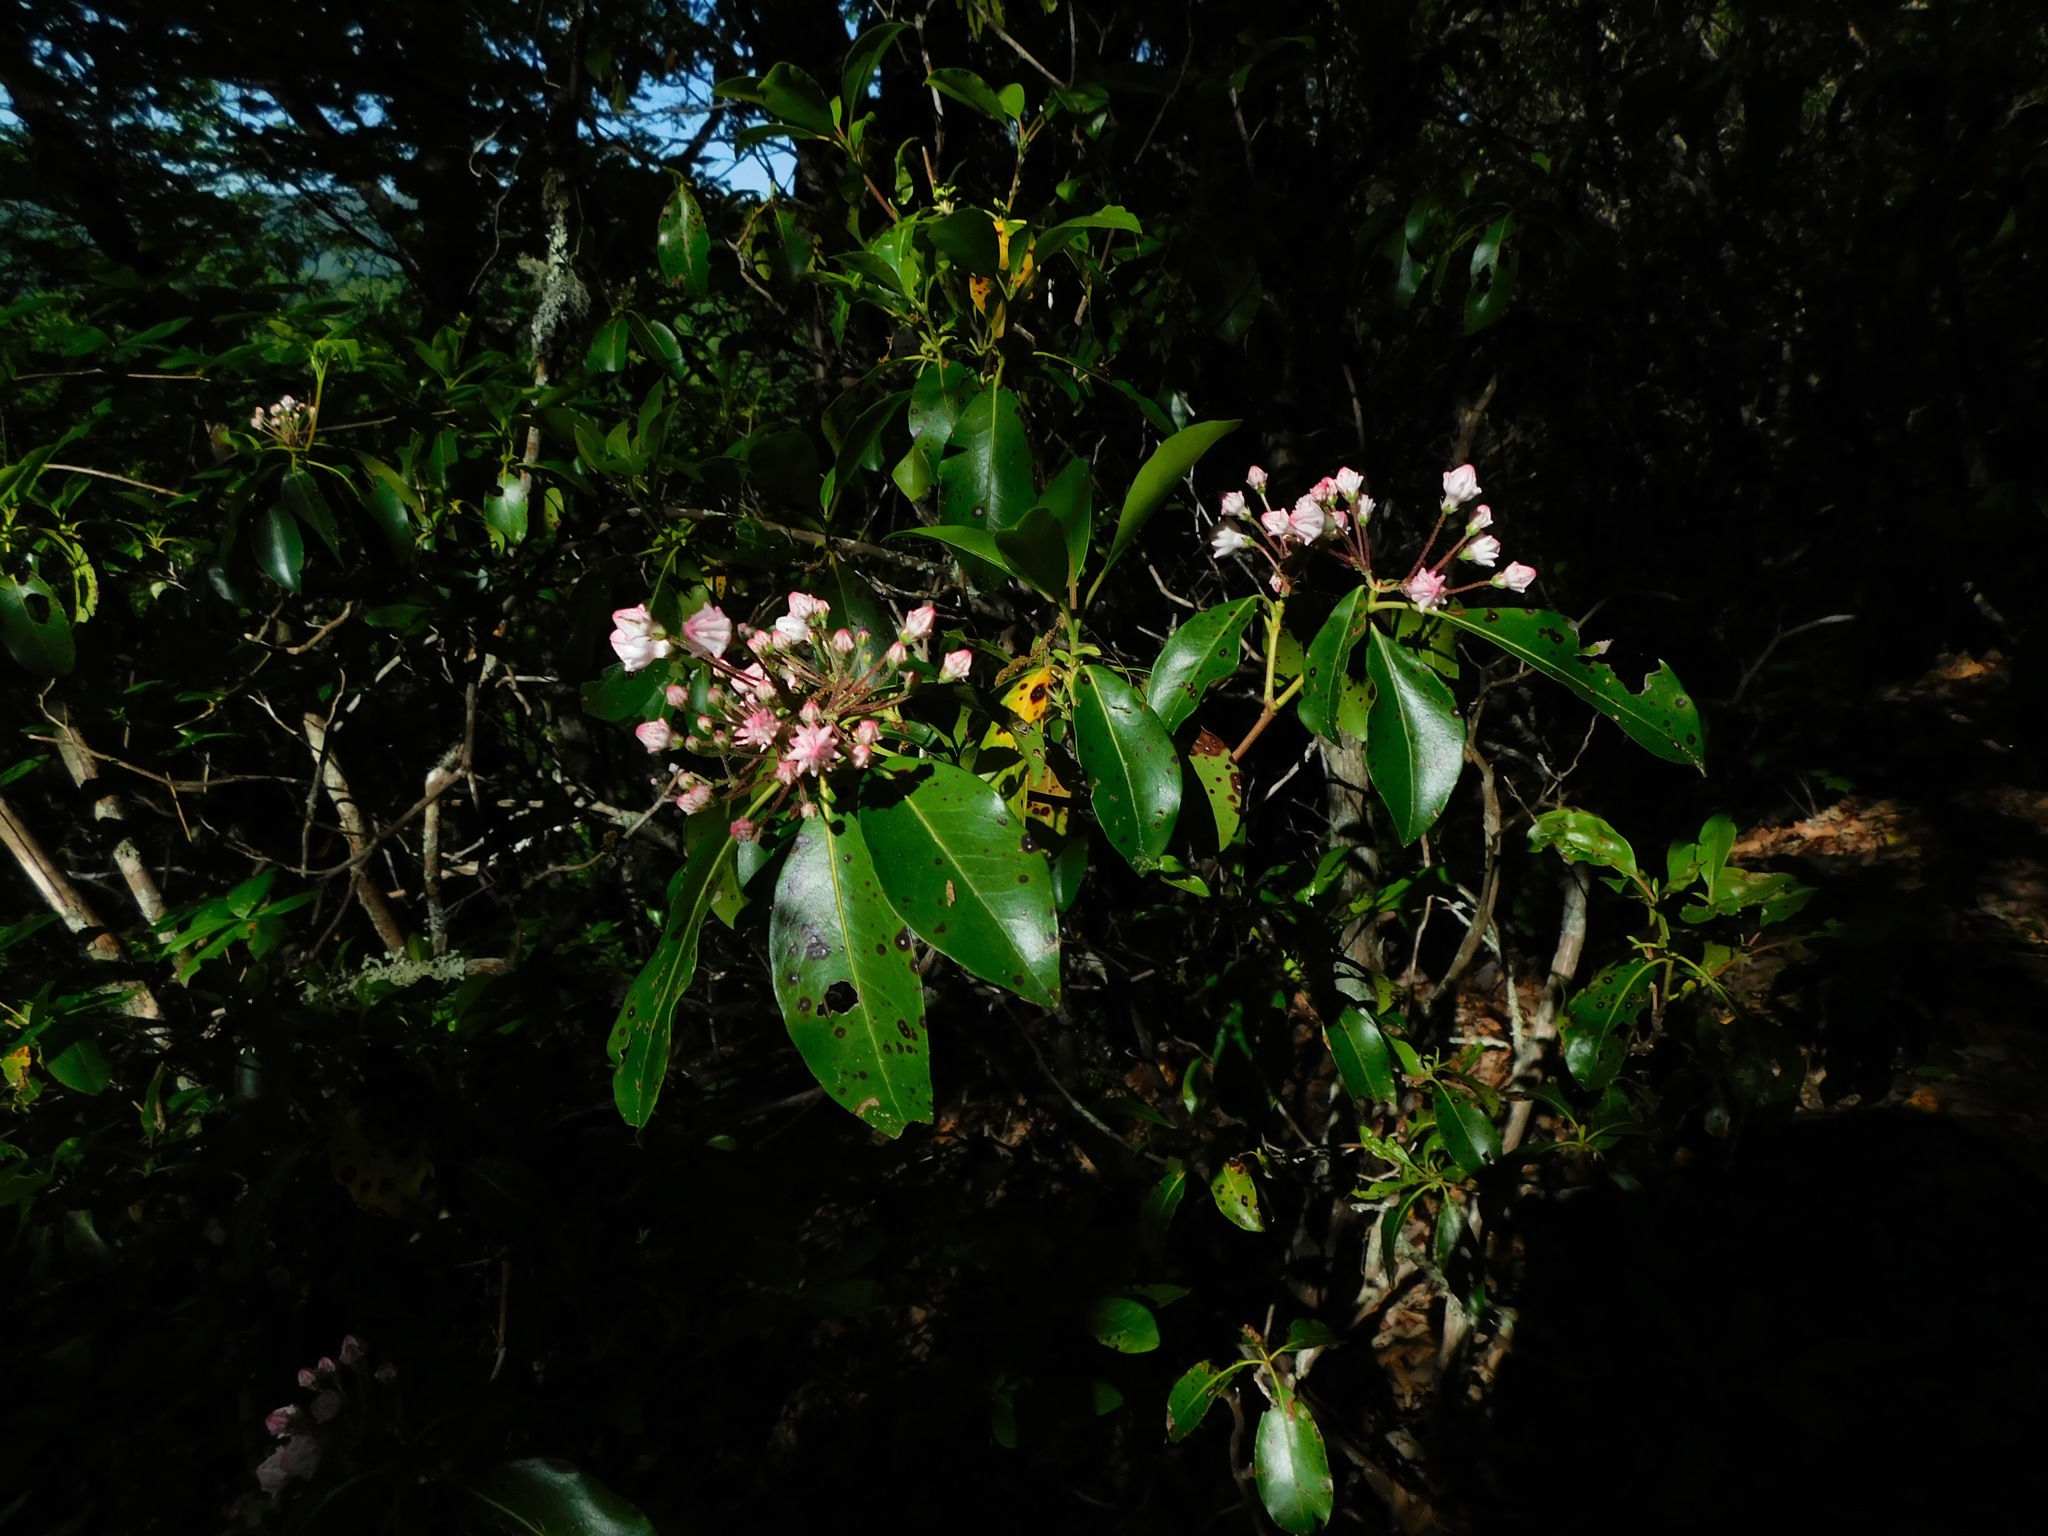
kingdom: Plantae
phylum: Tracheophyta
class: Magnoliopsida
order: Ericales
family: Ericaceae
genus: Kalmia
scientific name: Kalmia latifolia
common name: Mountain-laurel
